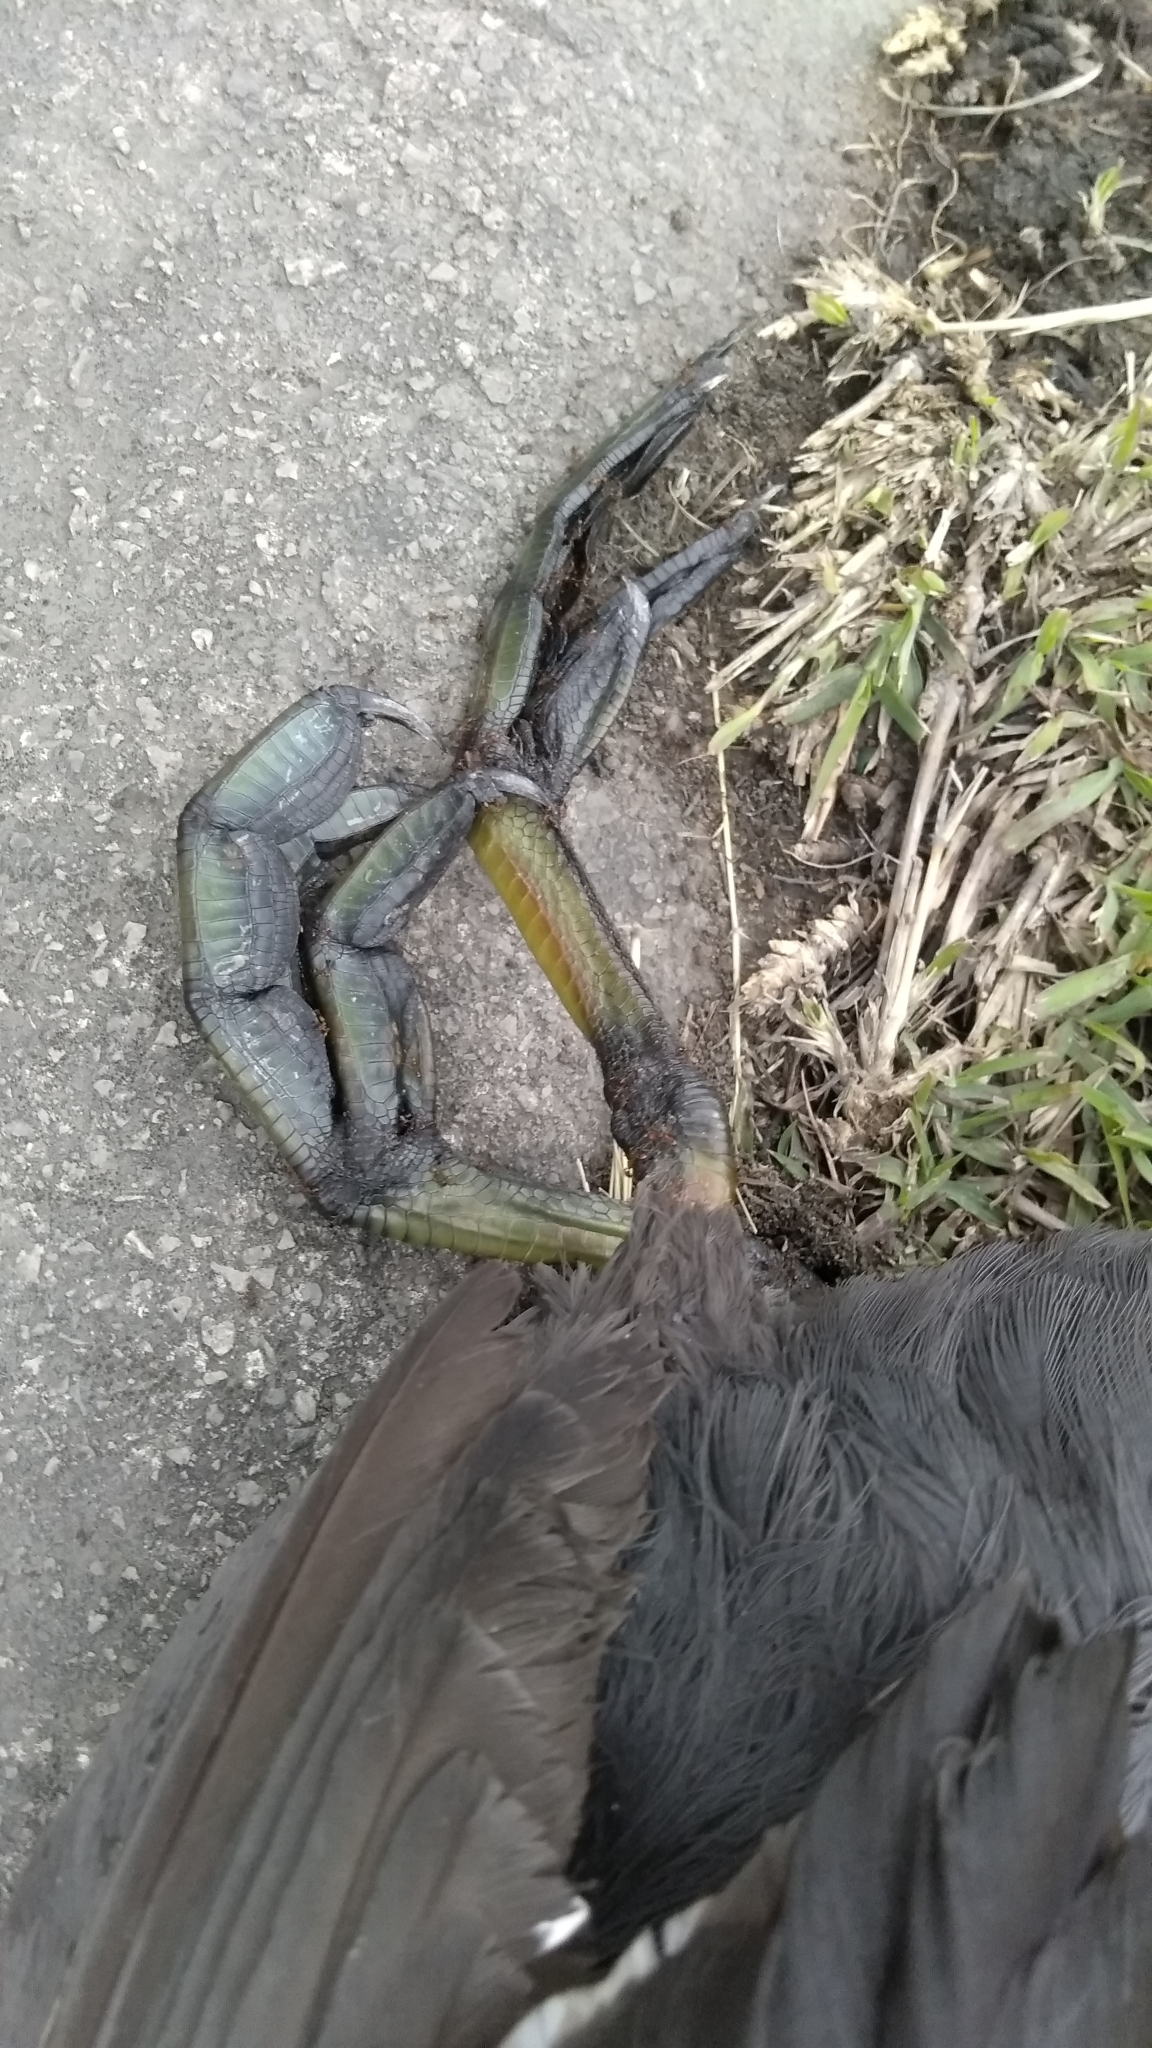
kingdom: Animalia
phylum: Chordata
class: Aves
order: Gruiformes
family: Rallidae
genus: Fulica
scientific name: Fulica americana
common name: American coot
